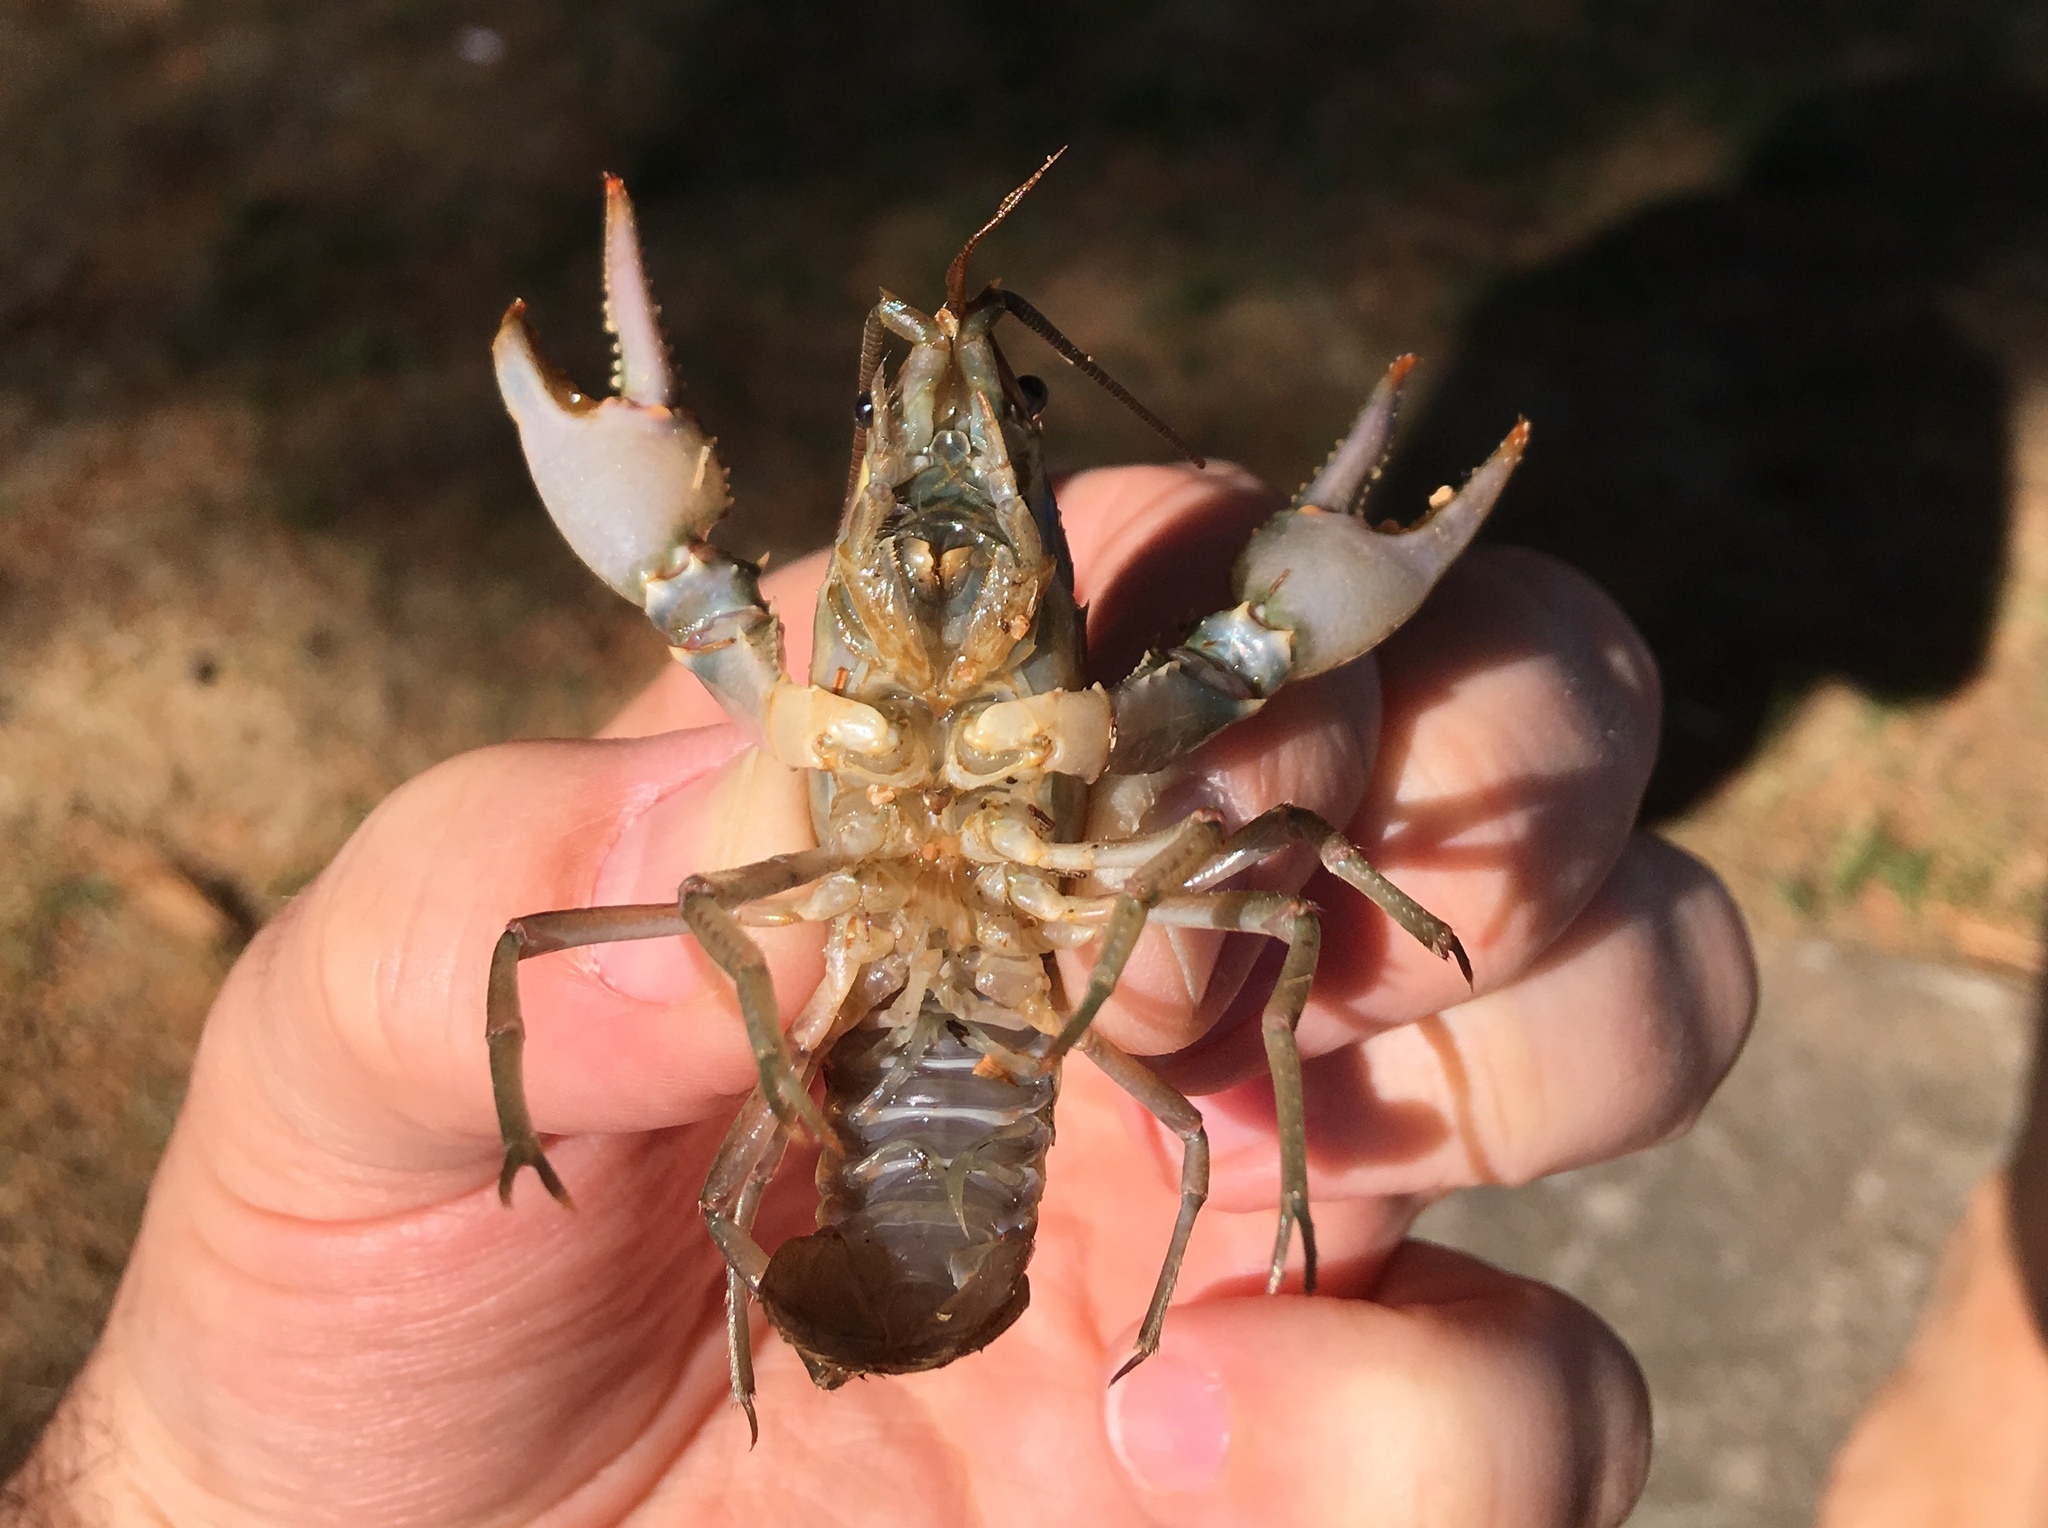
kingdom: Animalia
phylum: Arthropoda
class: Malacostraca
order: Decapoda
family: Cambaridae
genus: Faxonius
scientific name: Faxonius virilis
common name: Virile crayfish
